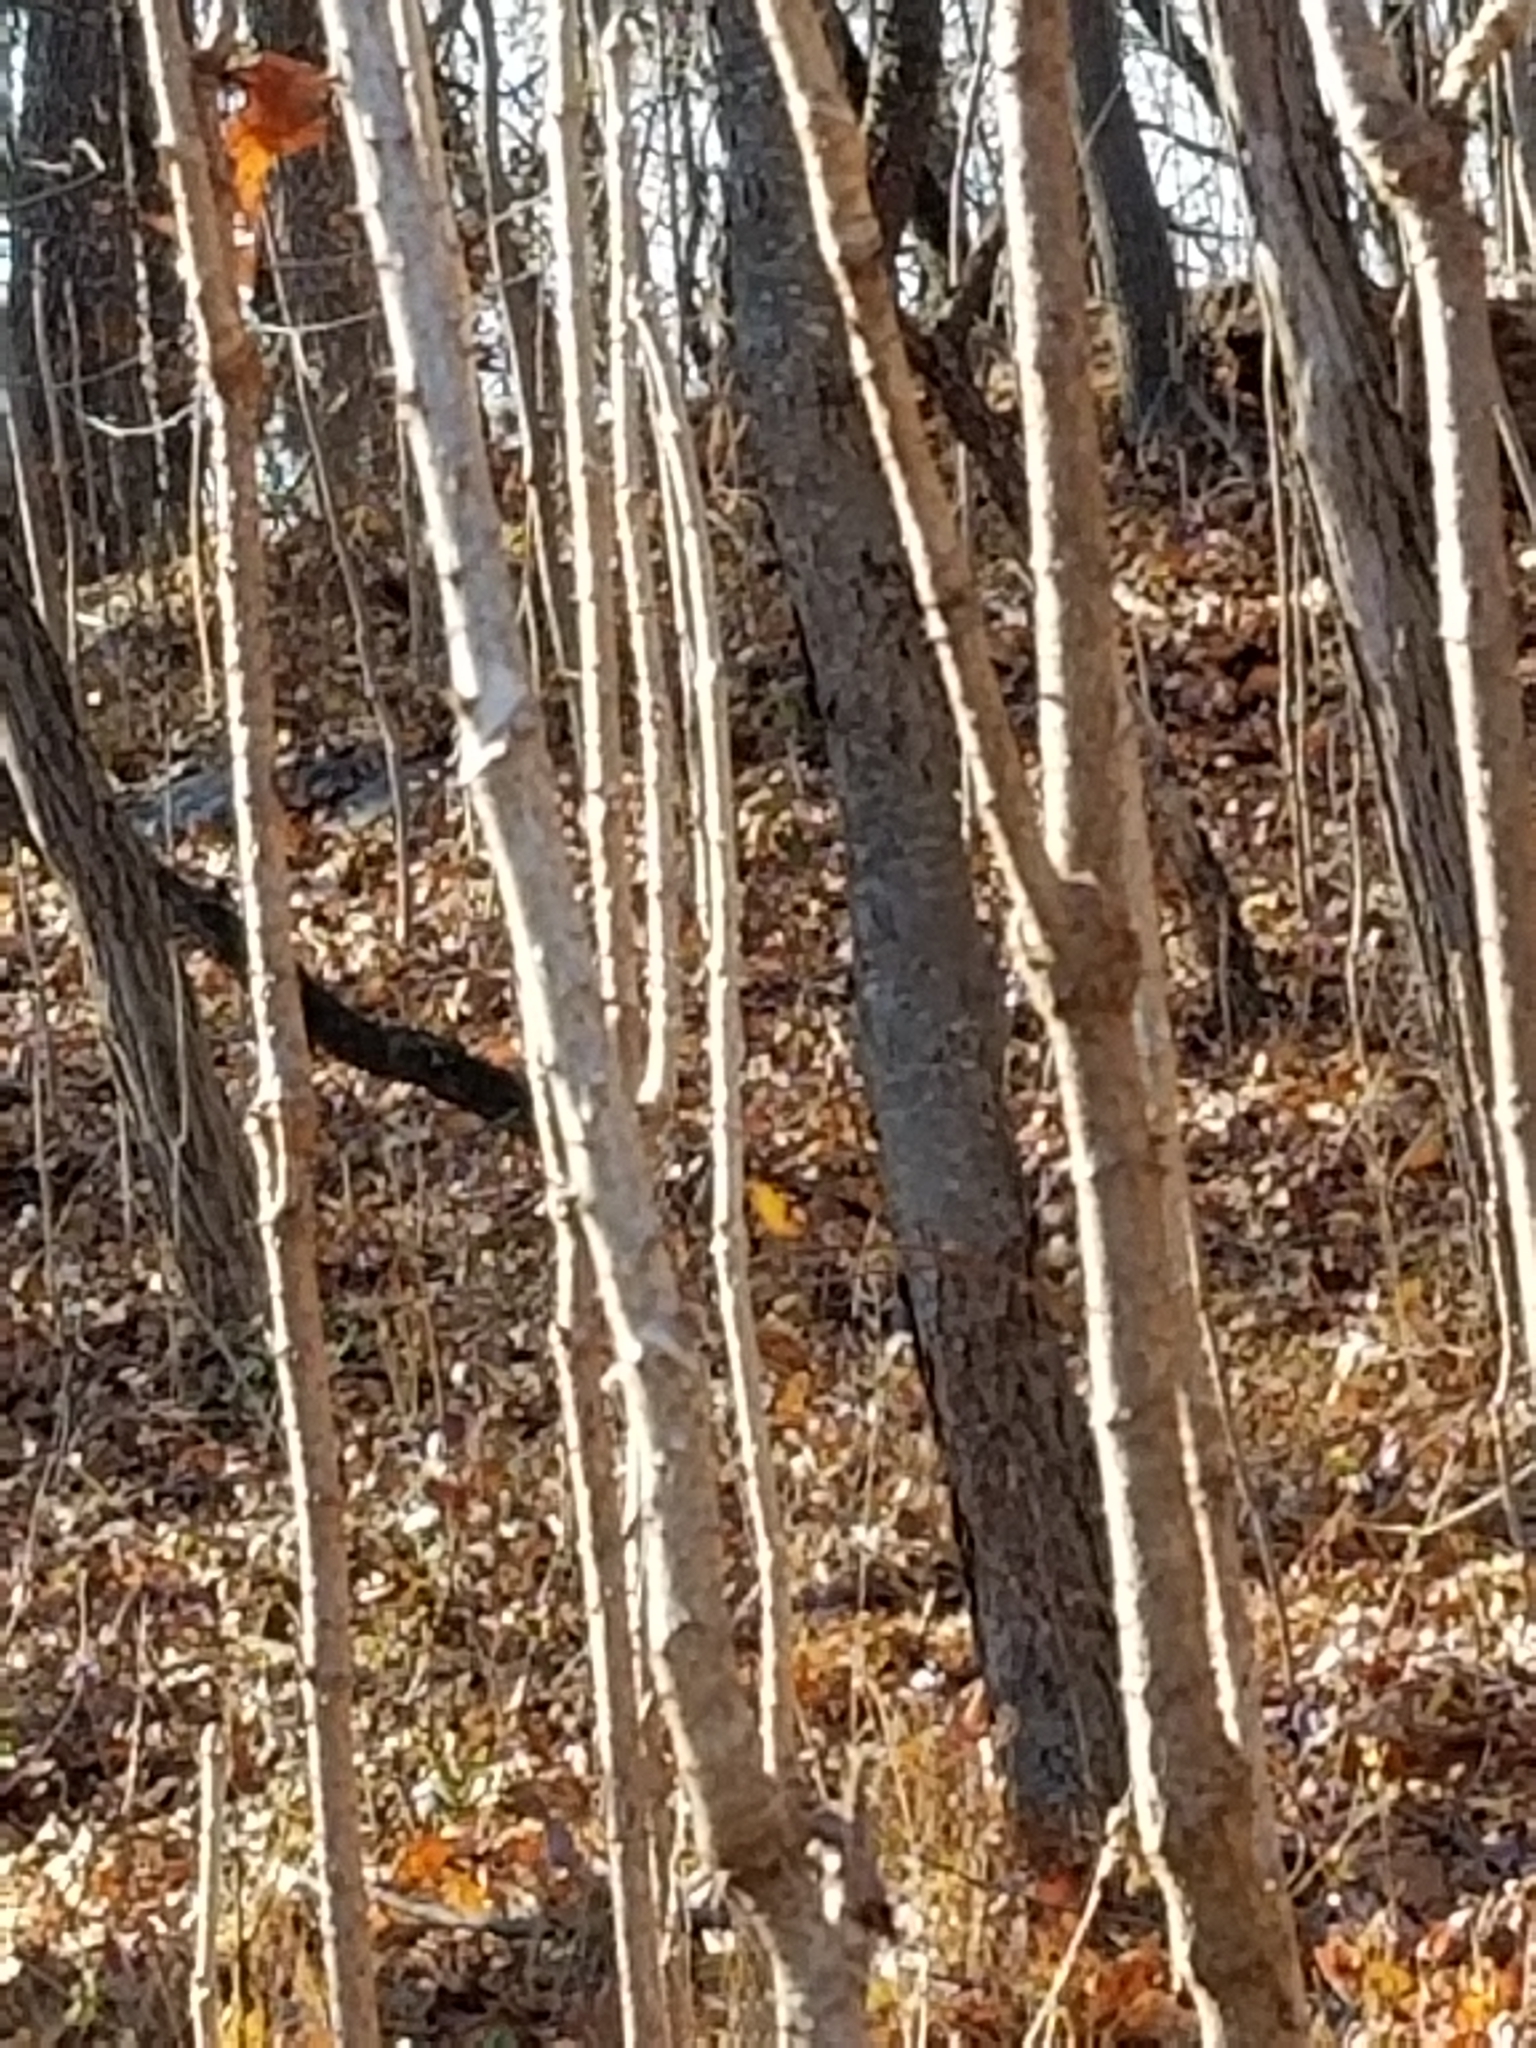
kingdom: Plantae
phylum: Tracheophyta
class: Magnoliopsida
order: Apiales
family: Araliaceae
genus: Aralia
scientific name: Aralia elata
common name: Japanese angelica-tree
